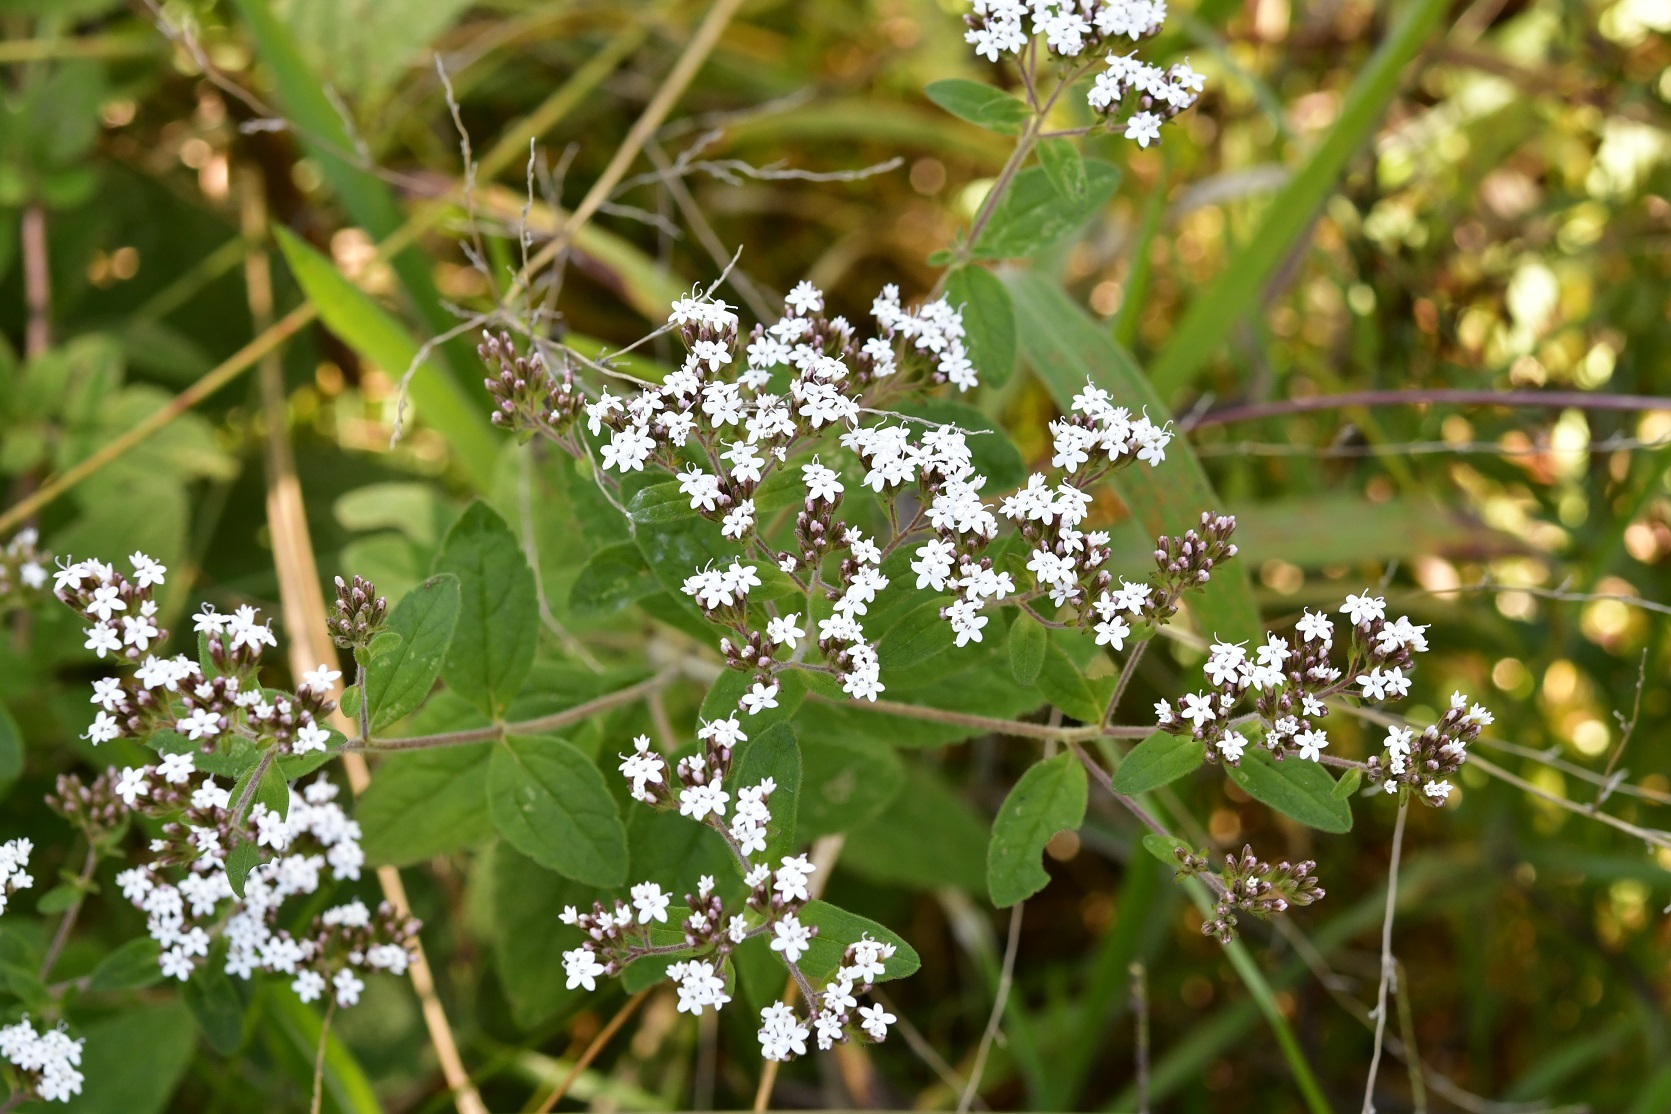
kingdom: Plantae
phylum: Tracheophyta
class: Magnoliopsida
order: Asterales
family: Asteraceae
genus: Stevia
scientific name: Stevia tomentosa
